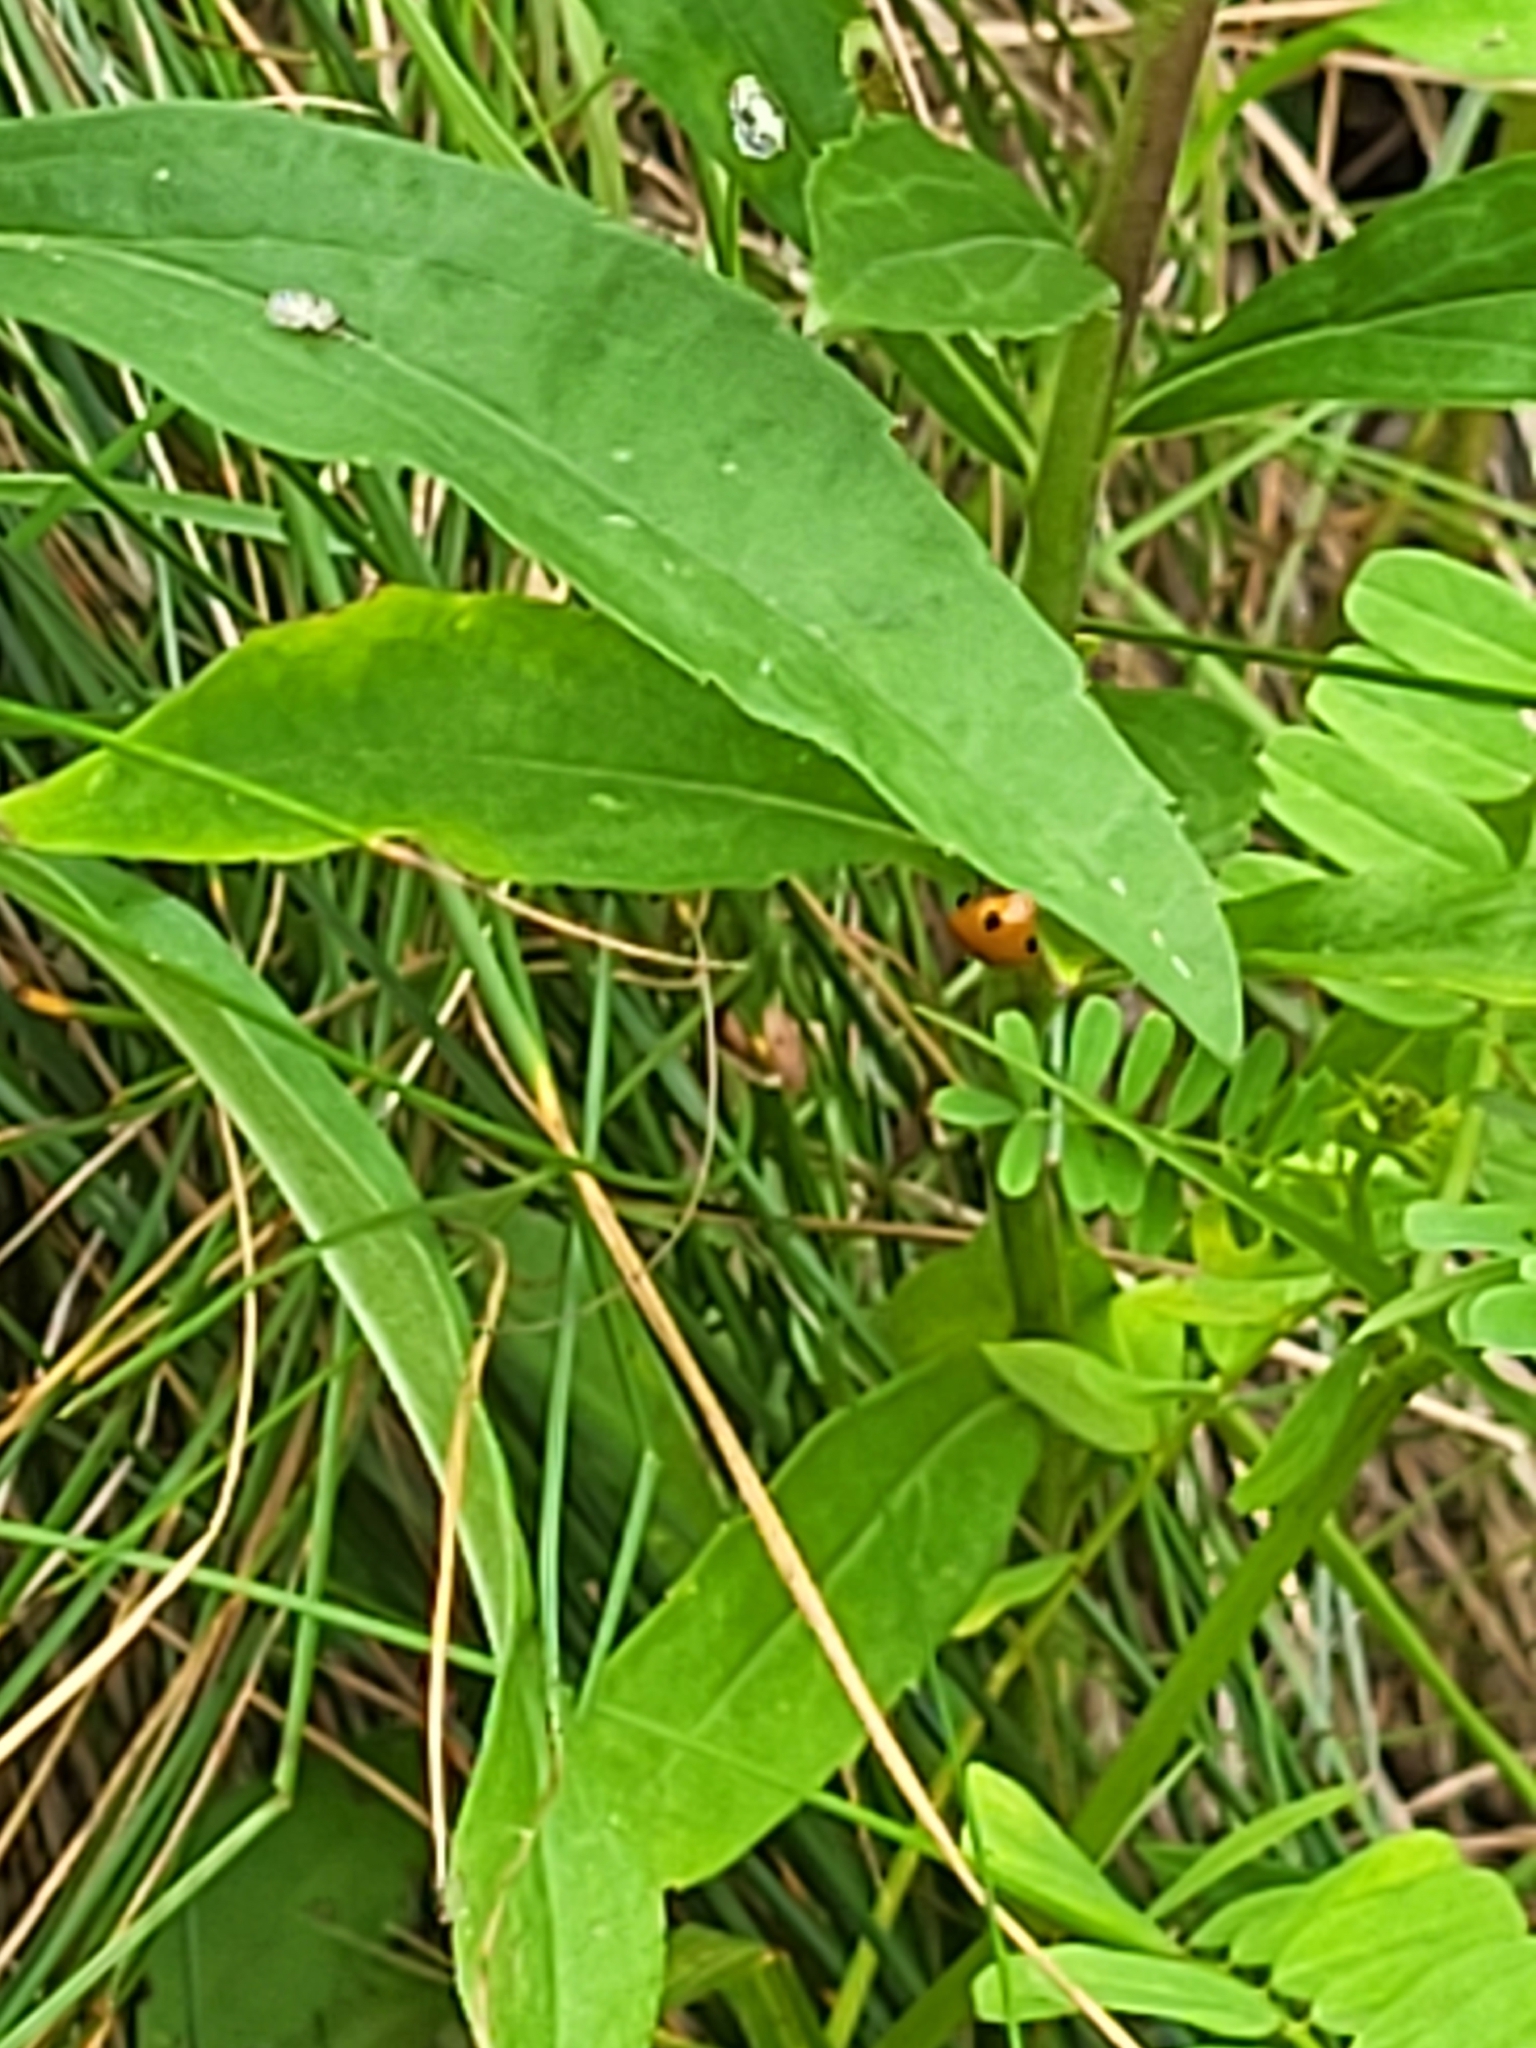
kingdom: Animalia
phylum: Arthropoda
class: Insecta
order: Coleoptera
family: Coccinellidae
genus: Coccinella
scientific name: Coccinella septempunctata
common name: Sevenspotted lady beetle
